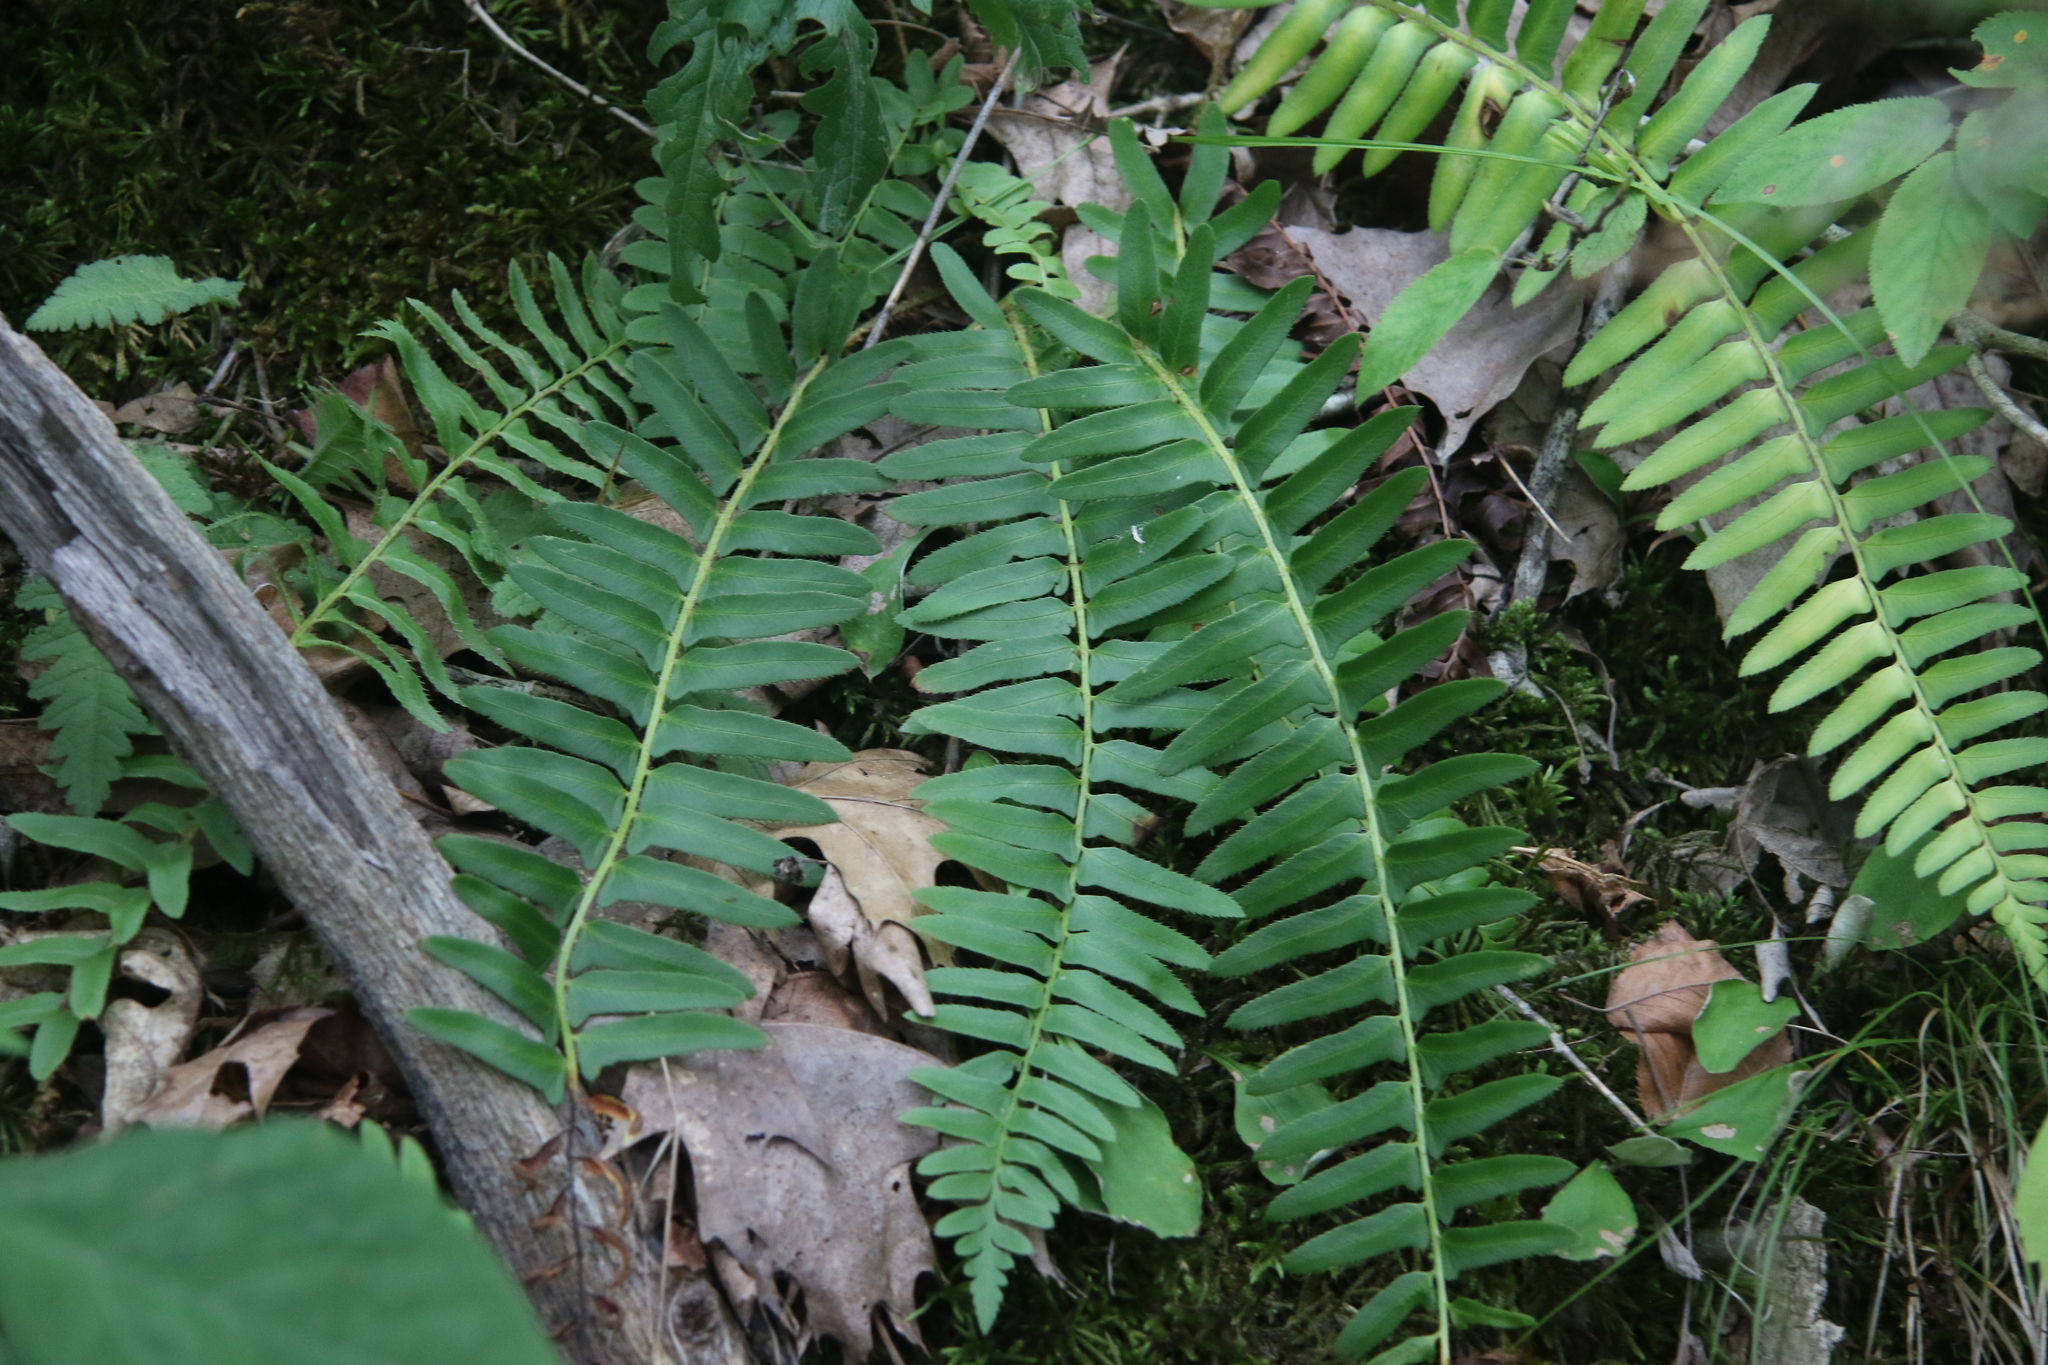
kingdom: Plantae
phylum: Tracheophyta
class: Polypodiopsida
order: Polypodiales
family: Dryopteridaceae
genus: Polystichum
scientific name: Polystichum acrostichoides
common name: Christmas fern
